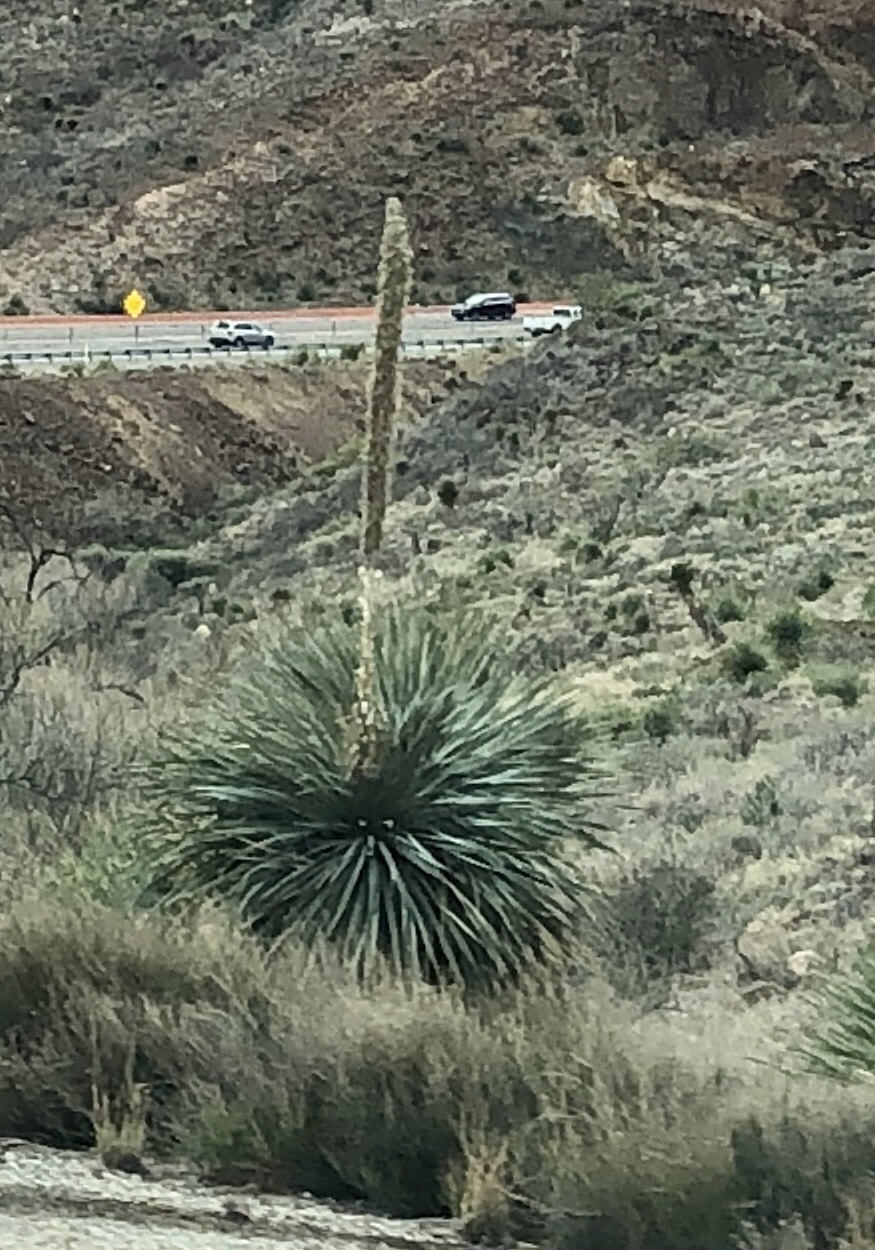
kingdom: Plantae
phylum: Tracheophyta
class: Liliopsida
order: Asparagales
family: Asparagaceae
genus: Dasylirion
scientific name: Dasylirion wheeleri
